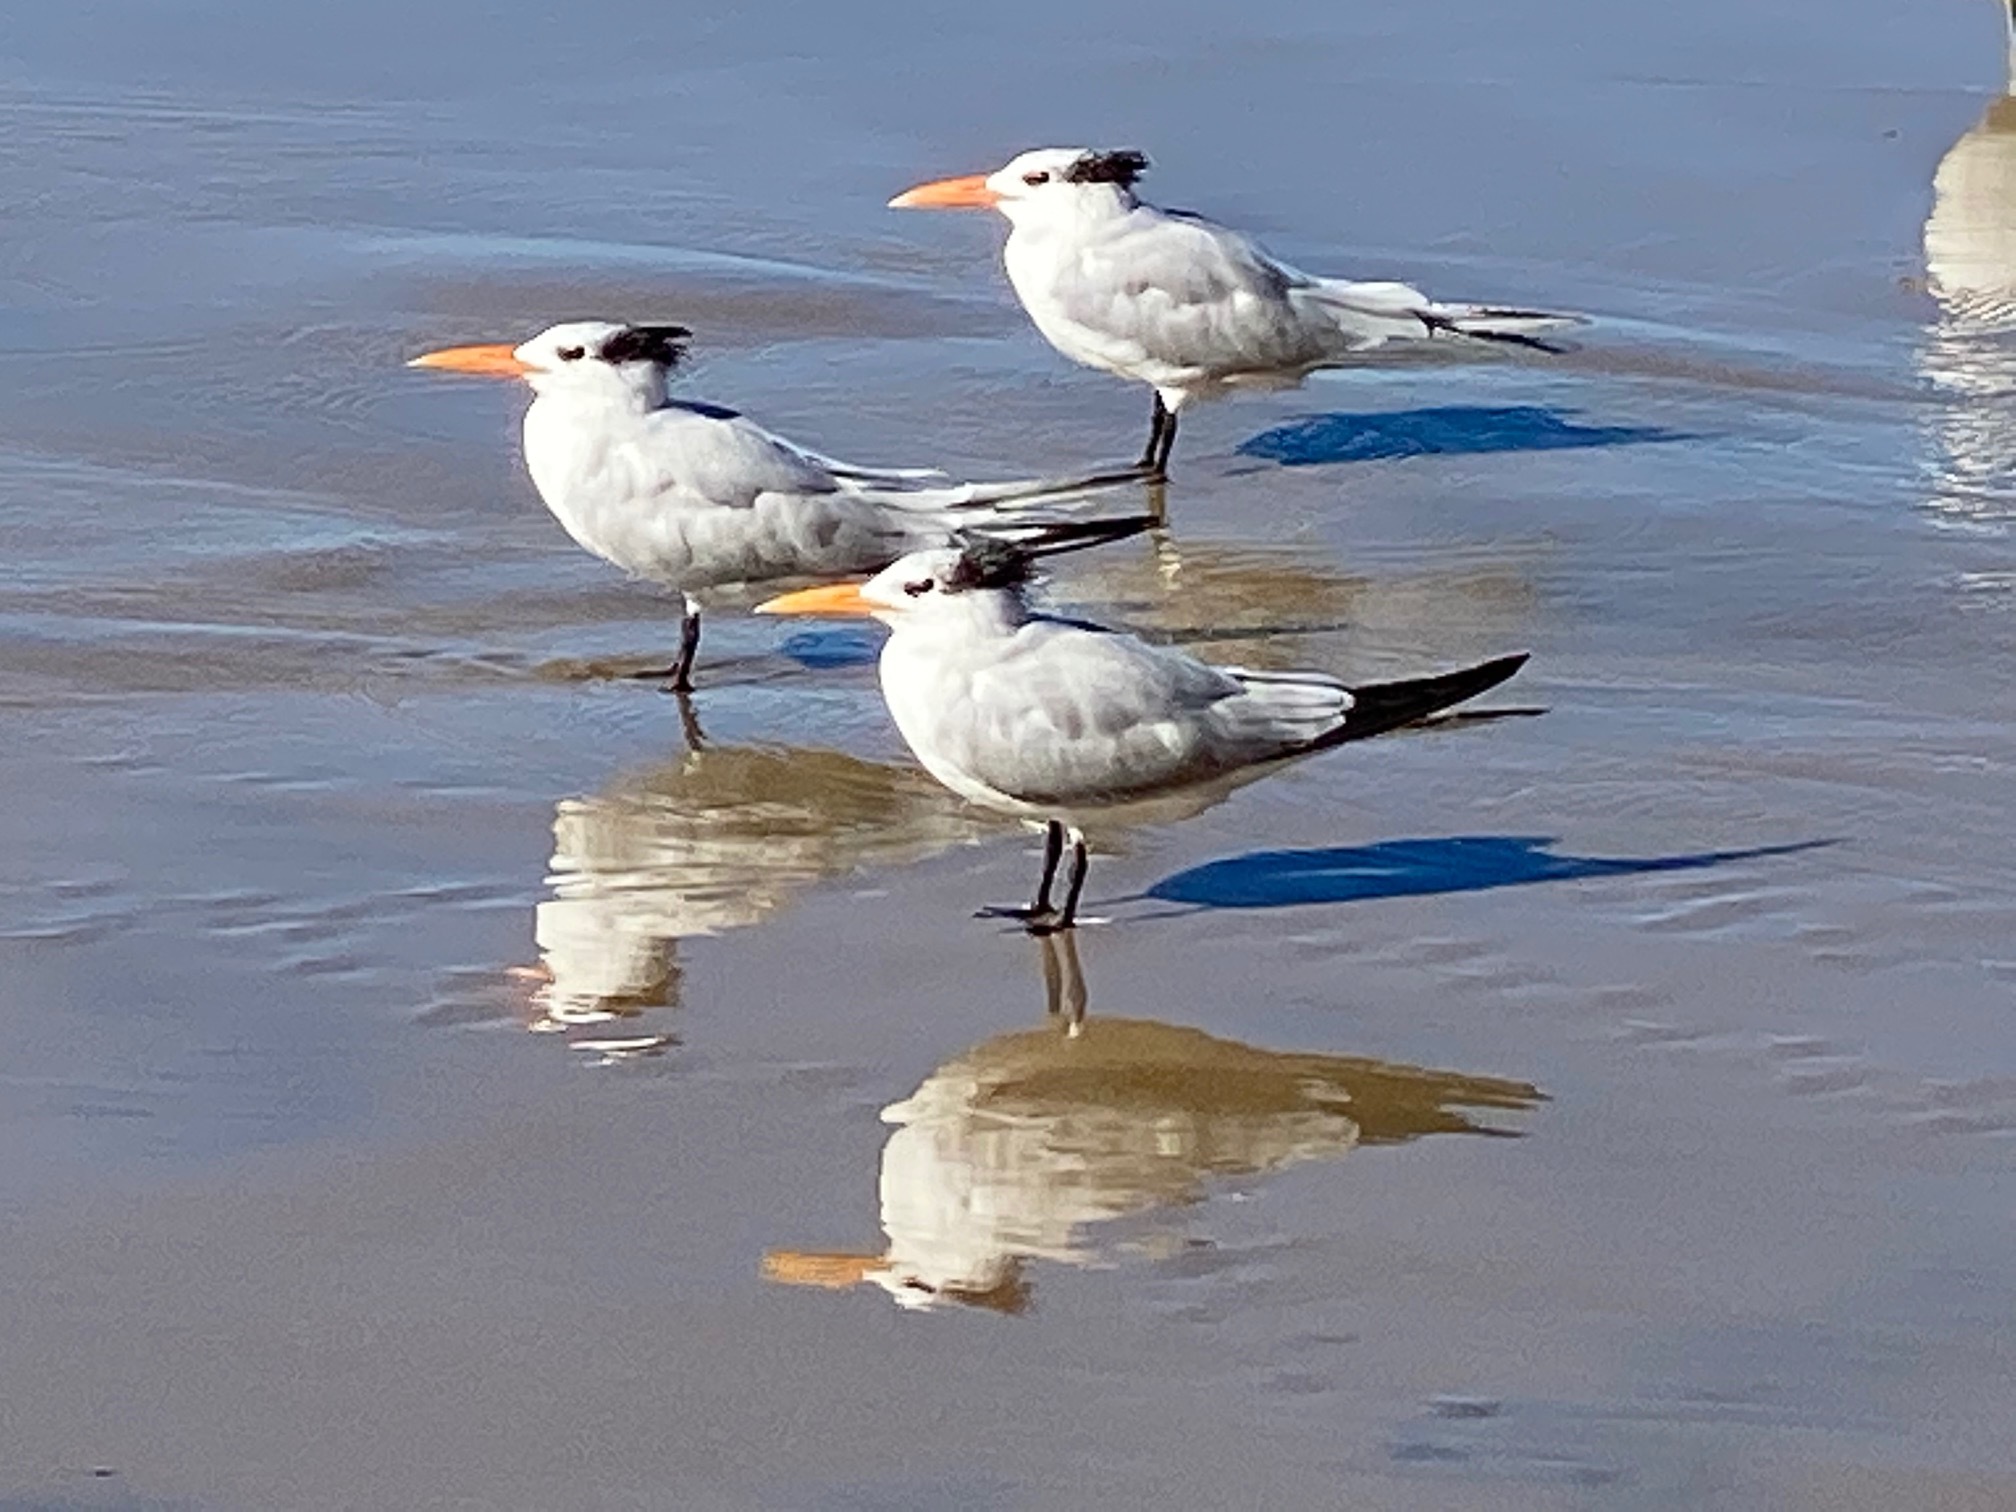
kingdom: Animalia
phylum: Chordata
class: Aves
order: Charadriiformes
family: Laridae
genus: Thalasseus
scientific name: Thalasseus maximus
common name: Royal tern
